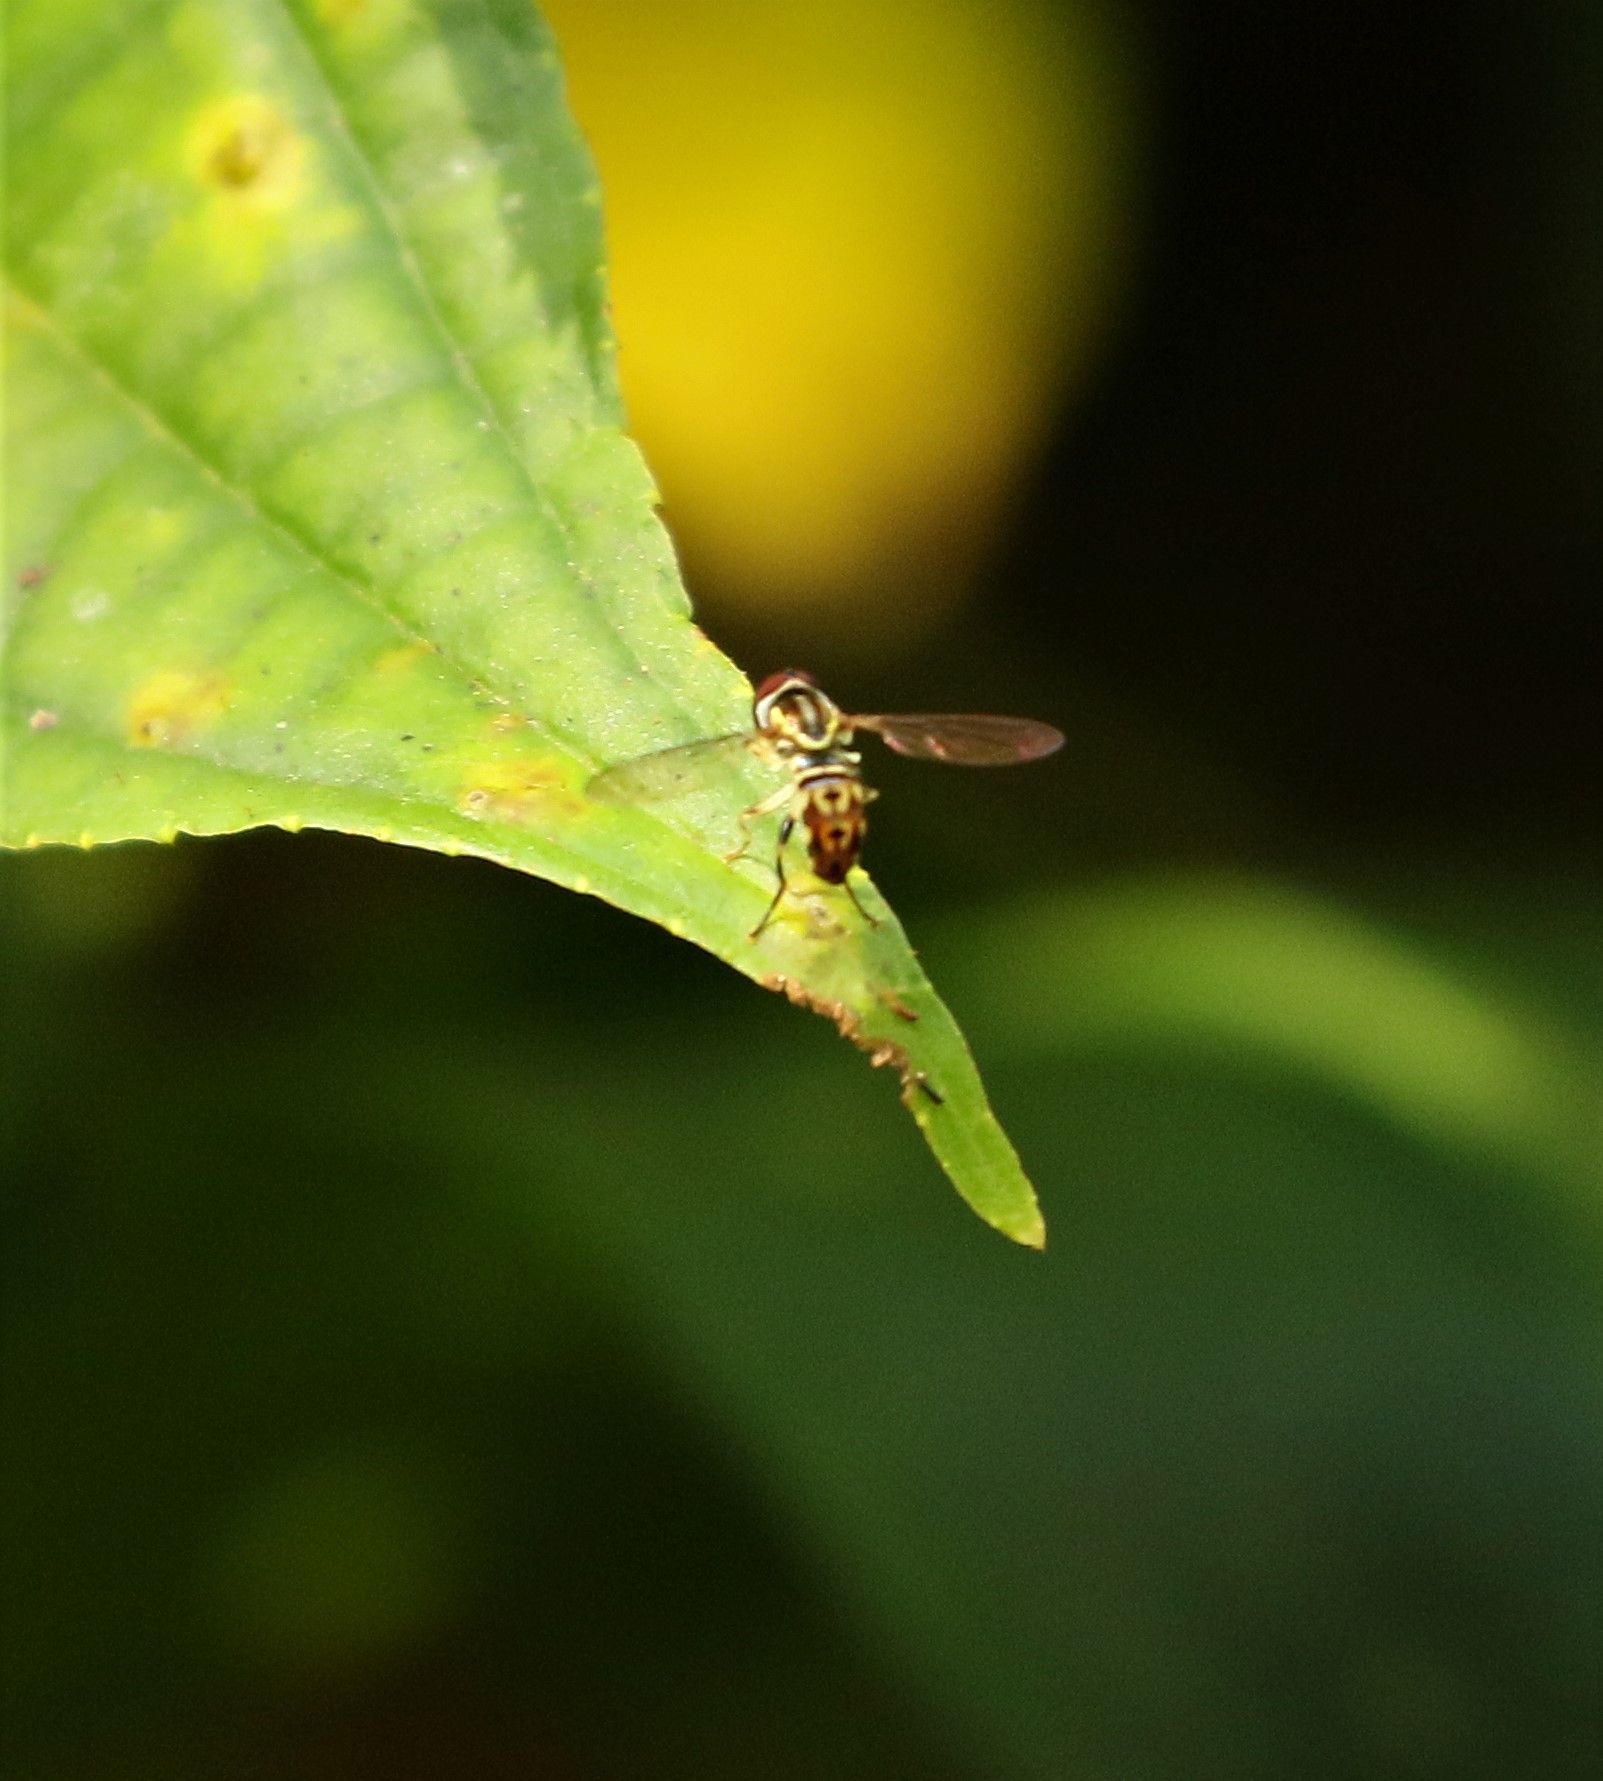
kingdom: Animalia
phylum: Arthropoda
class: Insecta
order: Diptera
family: Syrphidae
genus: Toxomerus
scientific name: Toxomerus virgulatus
